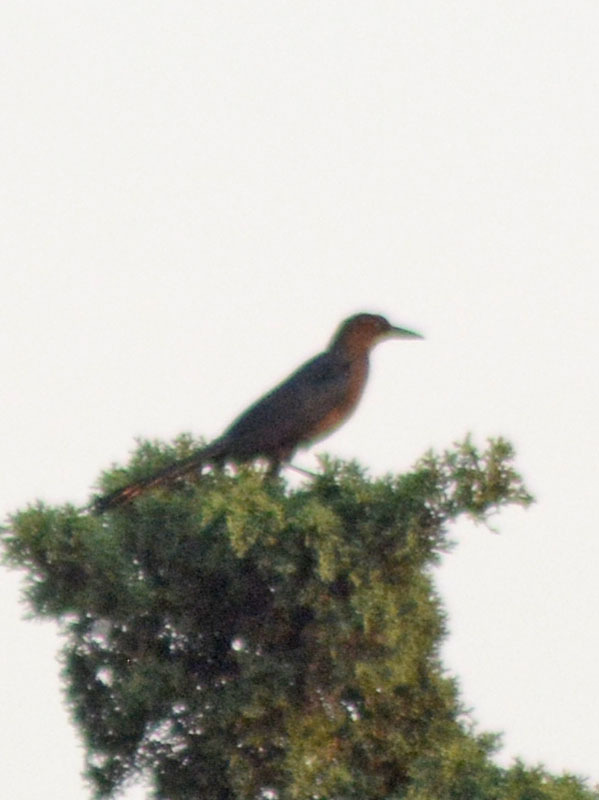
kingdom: Animalia
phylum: Chordata
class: Aves
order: Passeriformes
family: Icteridae
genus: Quiscalus
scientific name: Quiscalus mexicanus
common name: Great-tailed grackle
